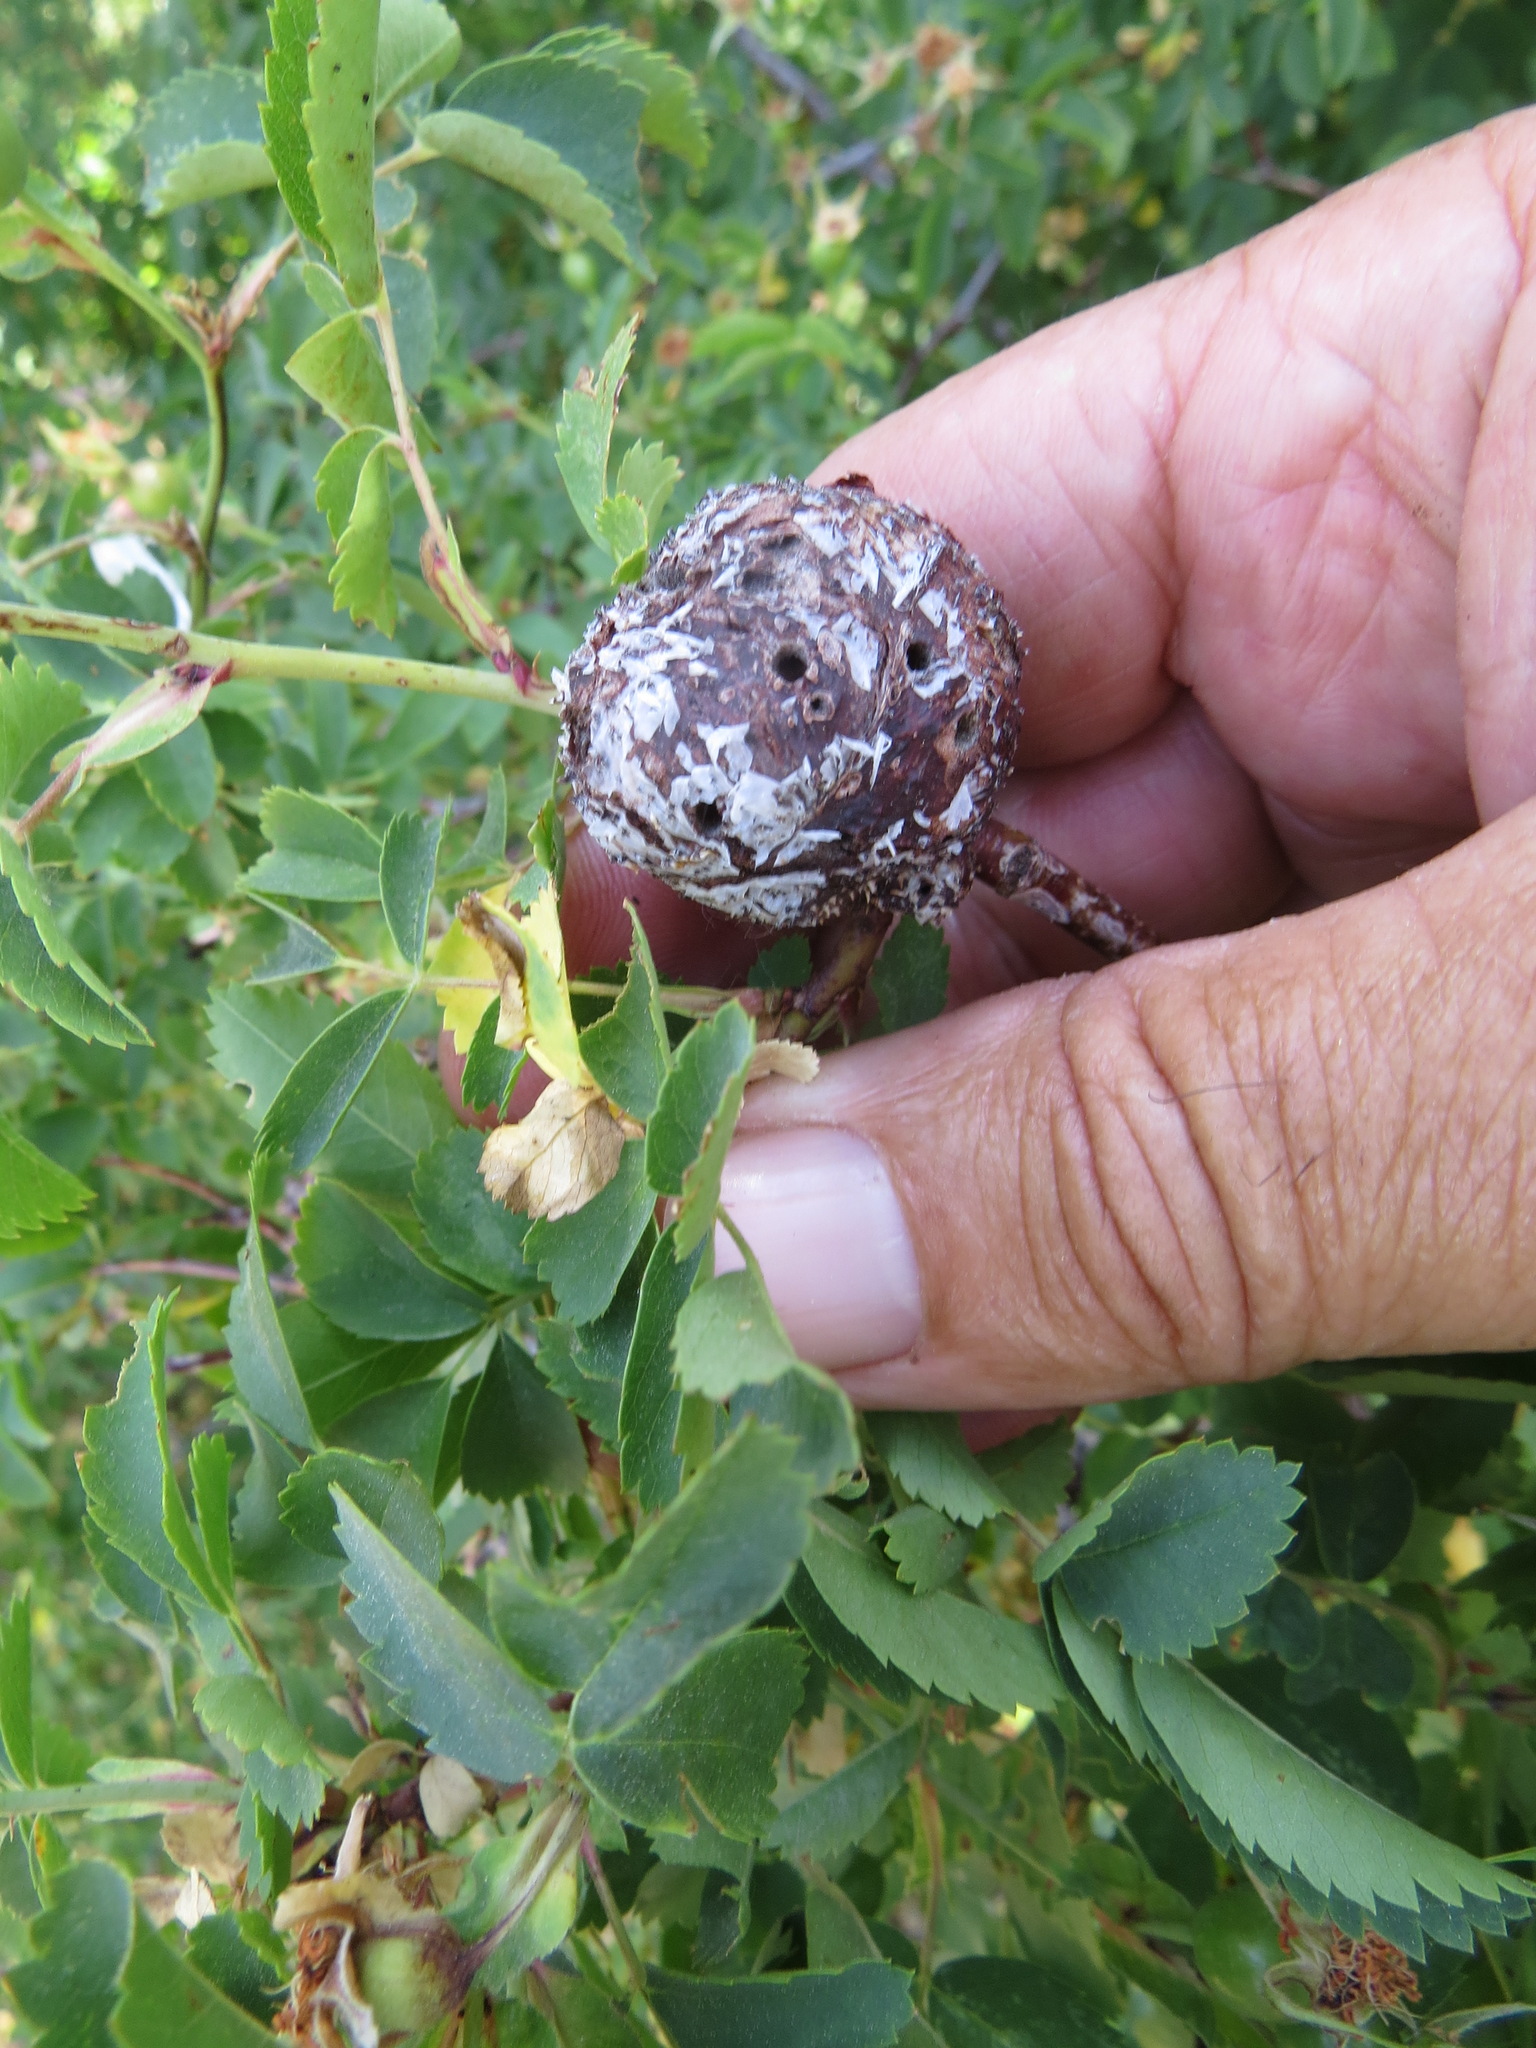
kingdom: Animalia
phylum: Arthropoda
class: Insecta
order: Hymenoptera
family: Cynipidae
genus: Diplolepis
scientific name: Diplolepis californica
